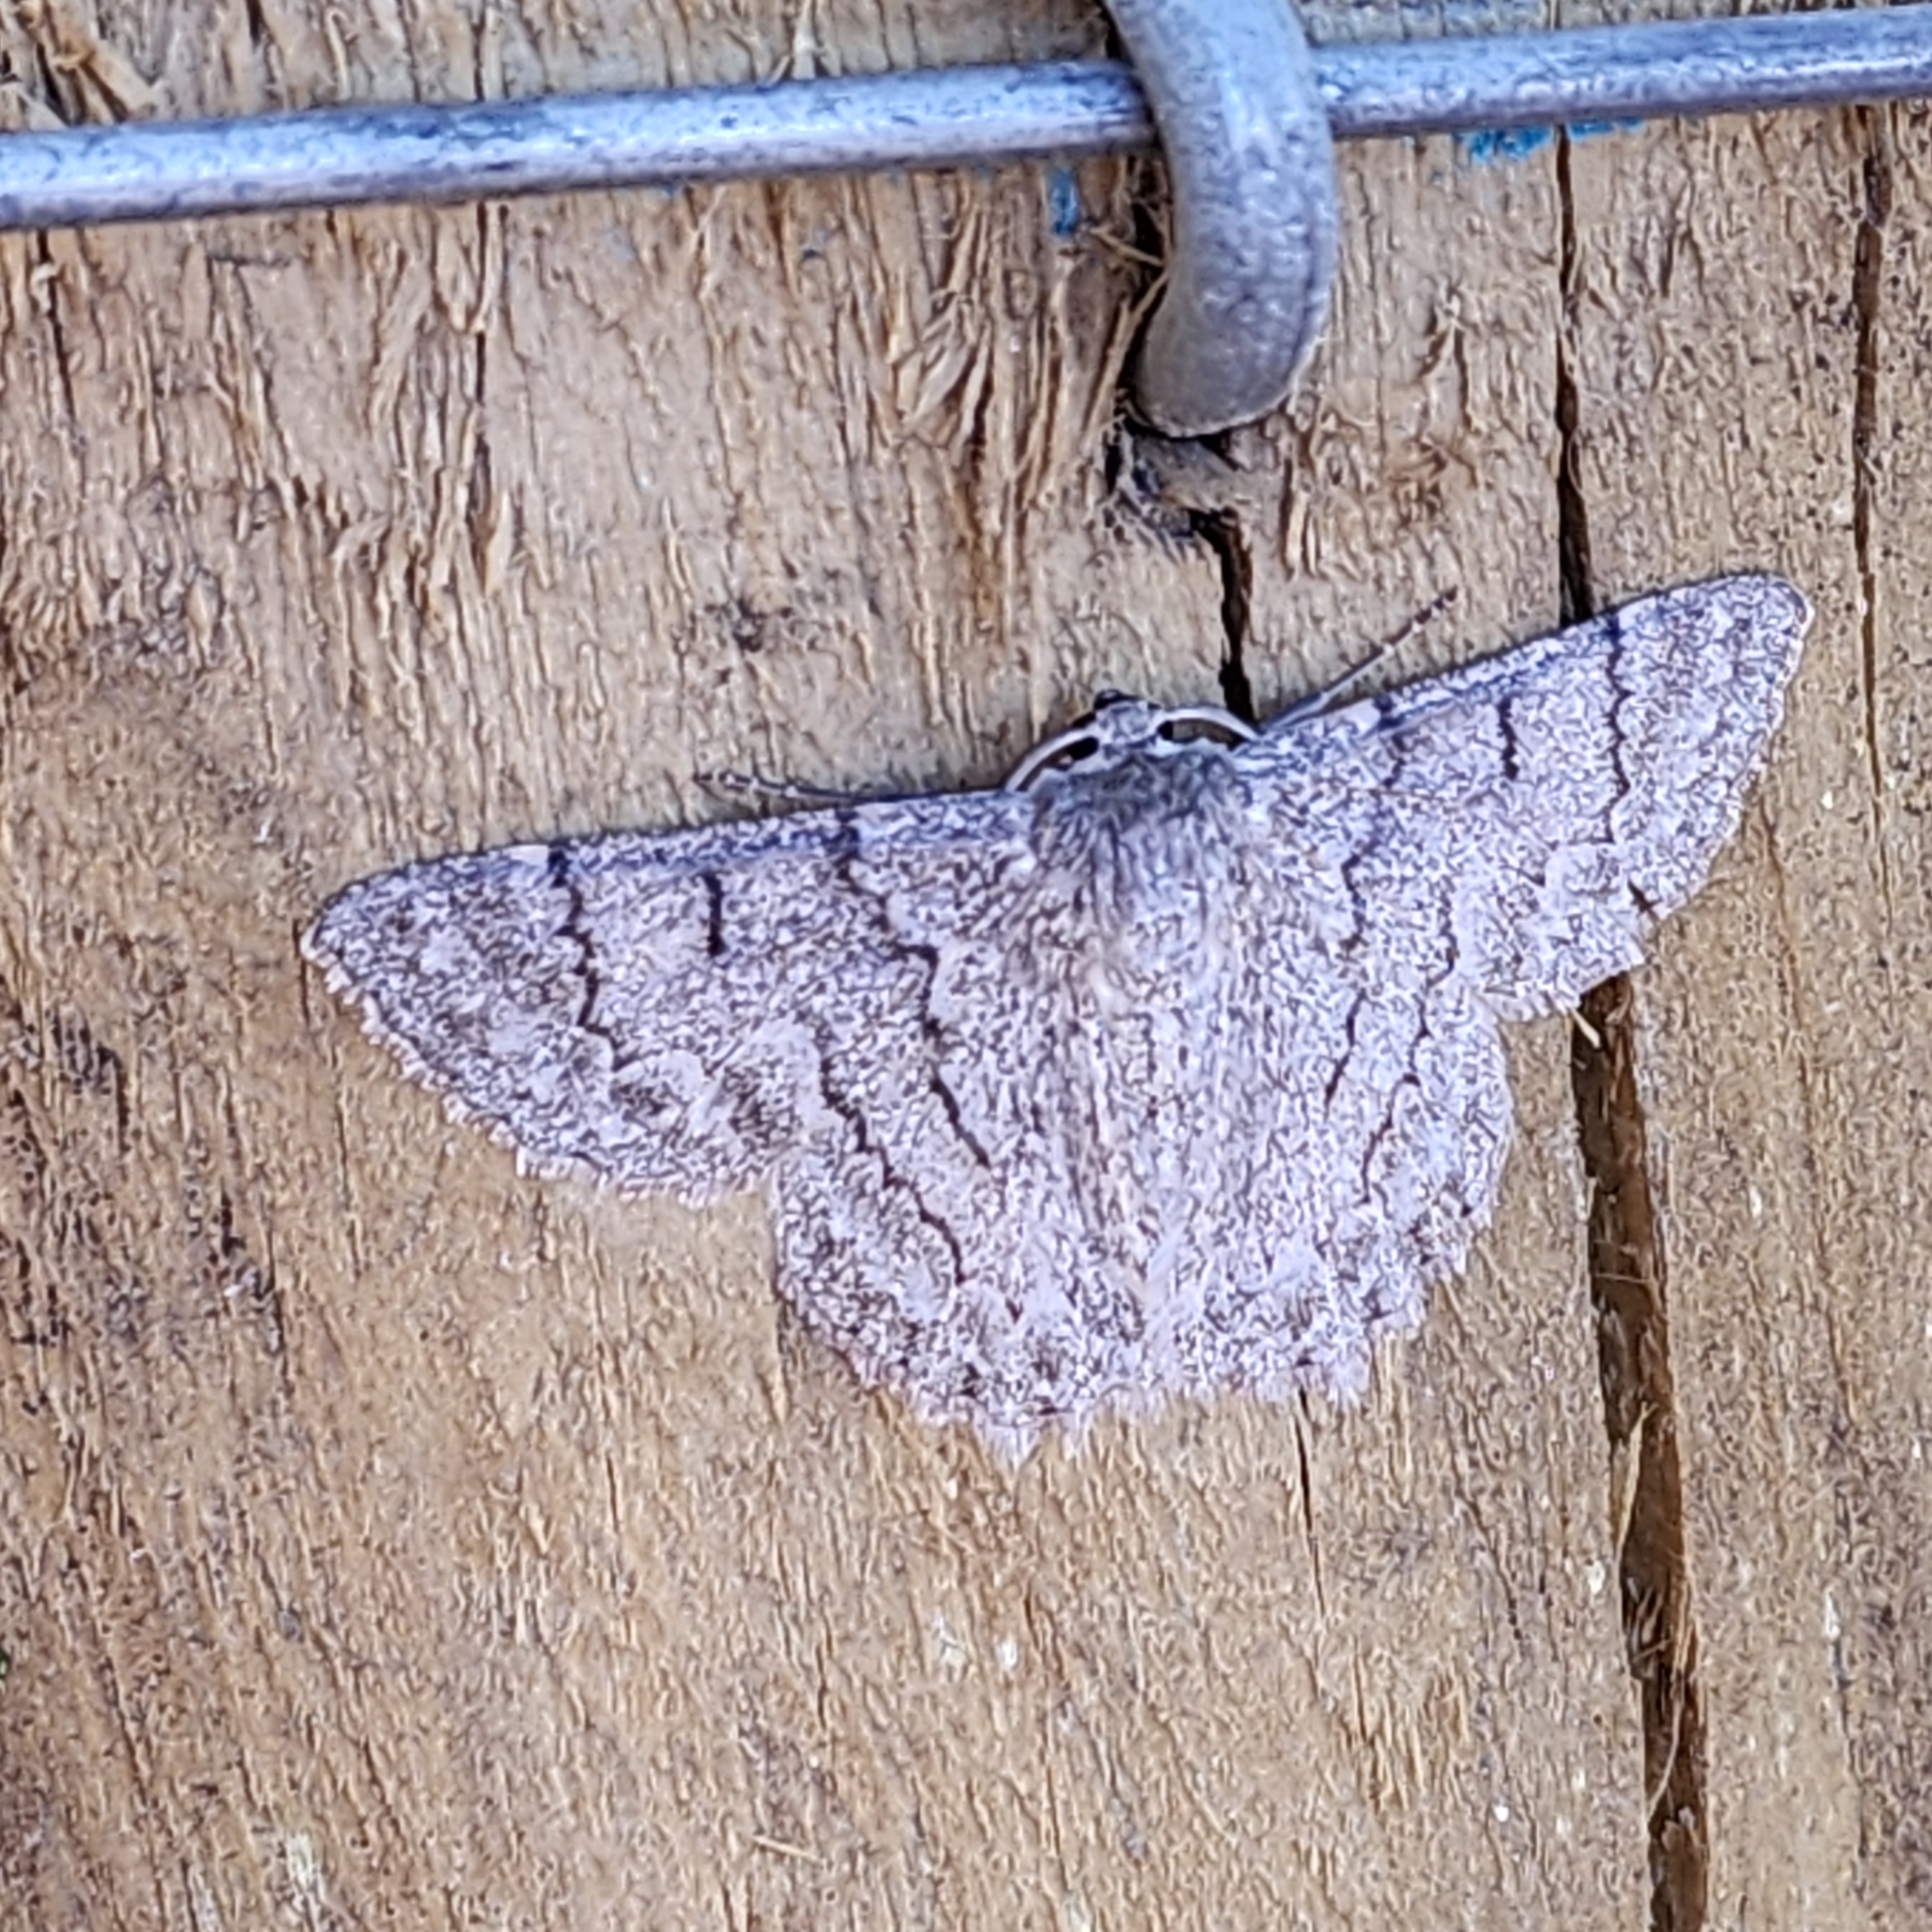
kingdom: Animalia
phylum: Arthropoda
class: Insecta
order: Lepidoptera
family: Geometridae
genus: Crypsiphona
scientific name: Crypsiphona ocultaria
